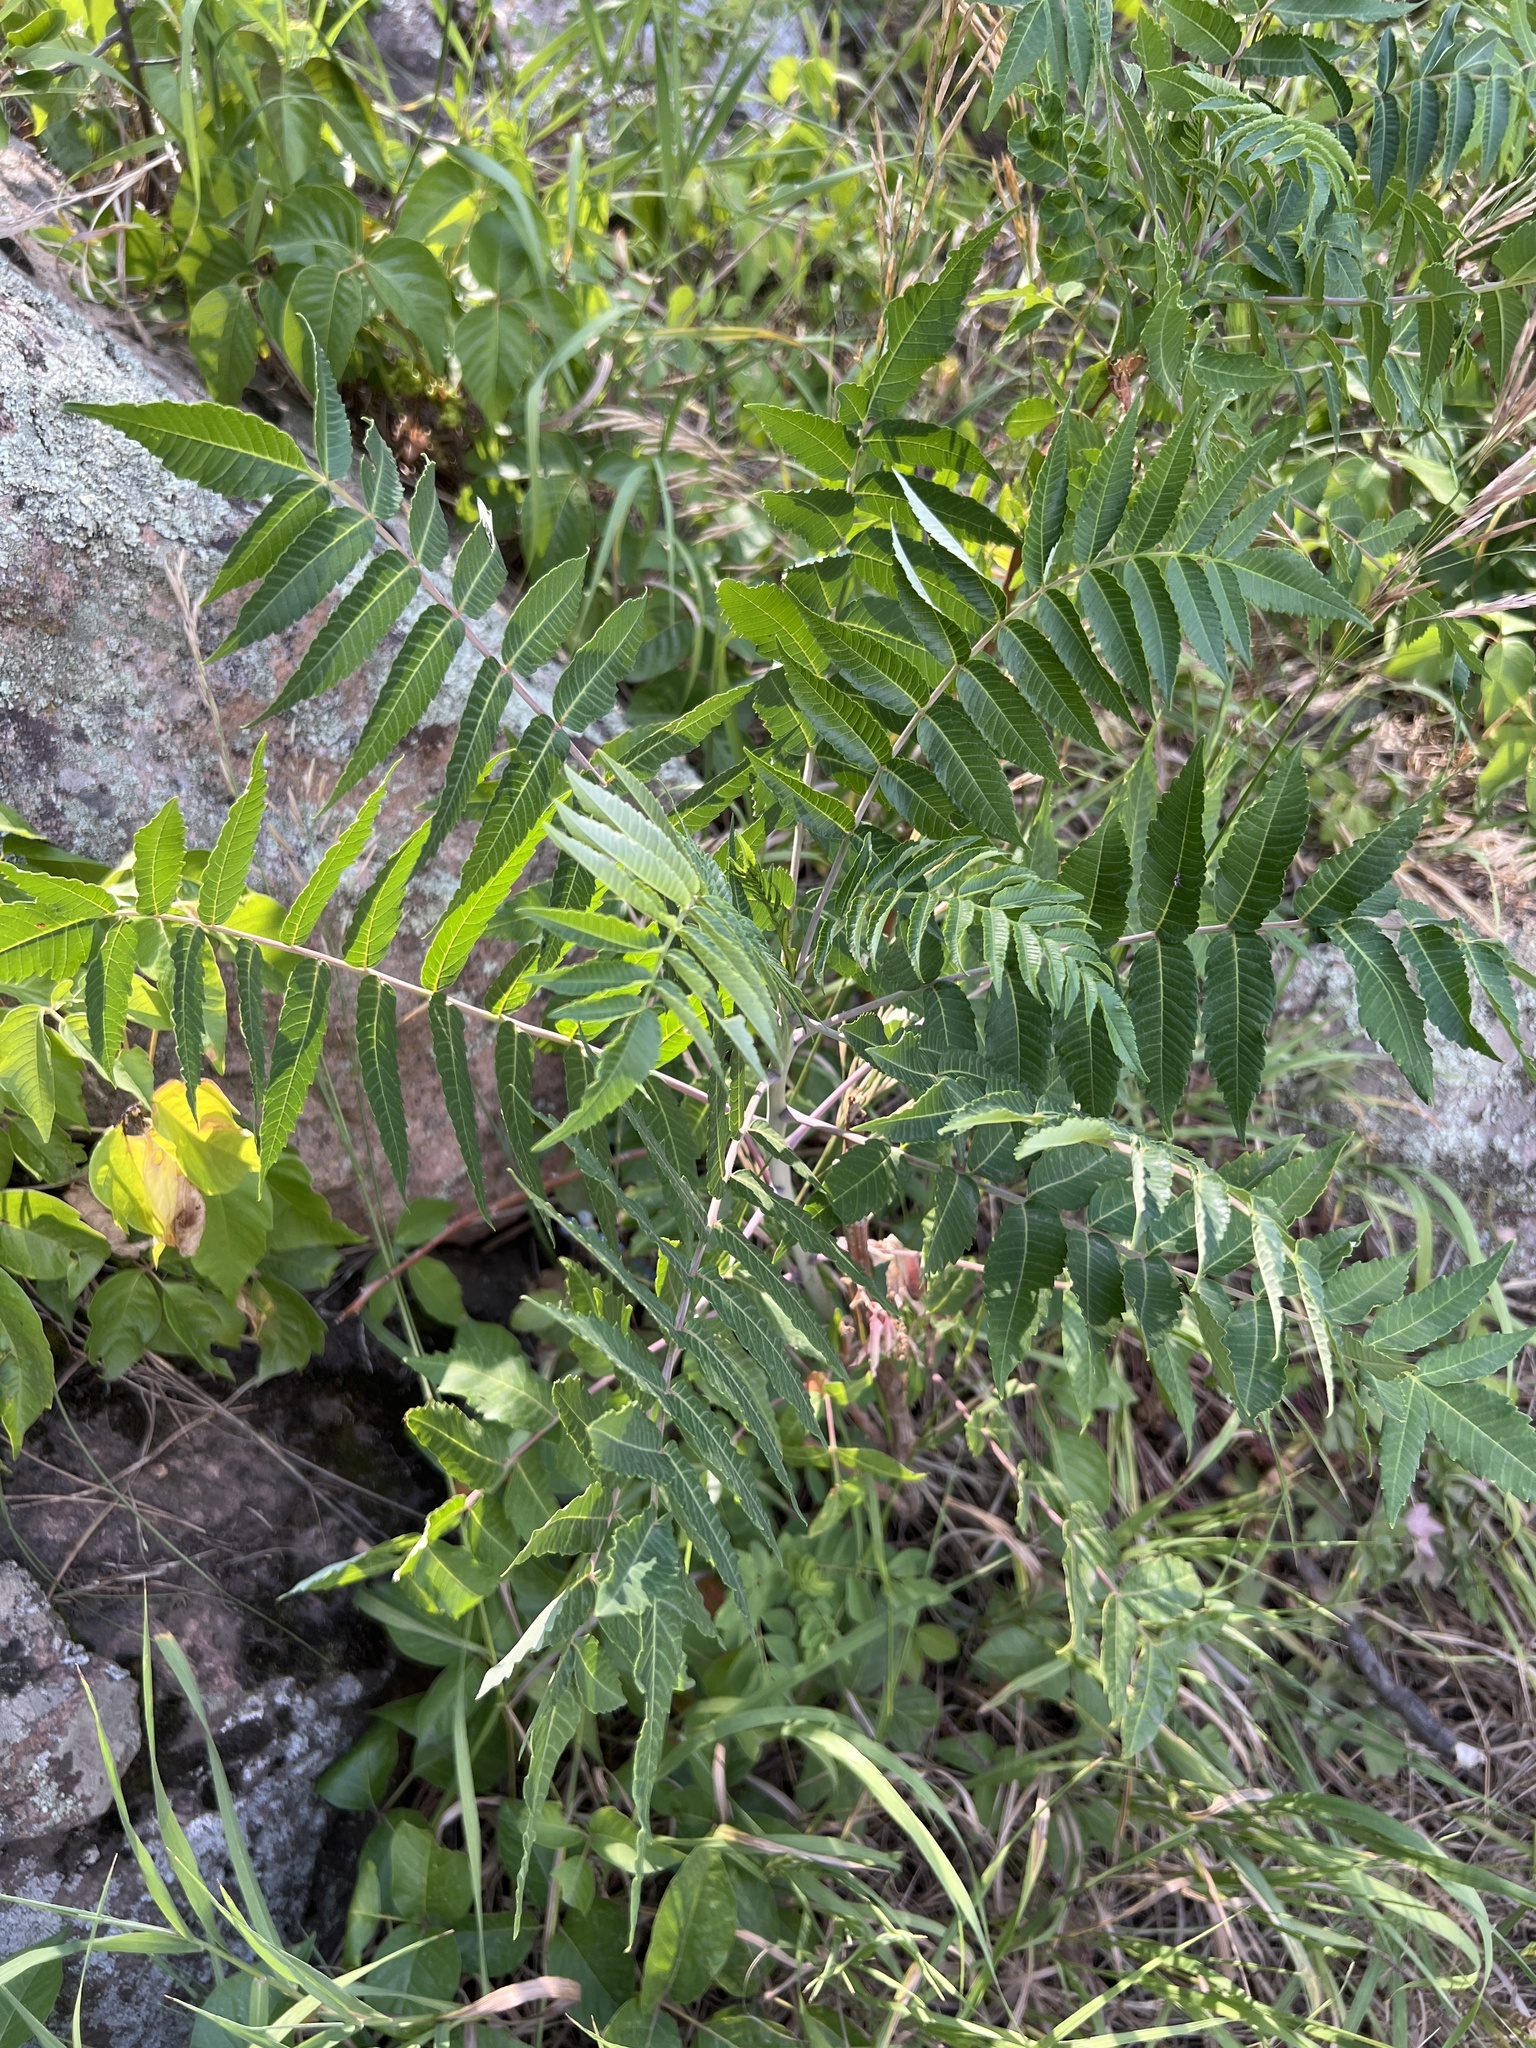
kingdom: Plantae
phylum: Tracheophyta
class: Magnoliopsida
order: Sapindales
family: Anacardiaceae
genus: Rhus
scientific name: Rhus glabra
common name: Scarlet sumac
